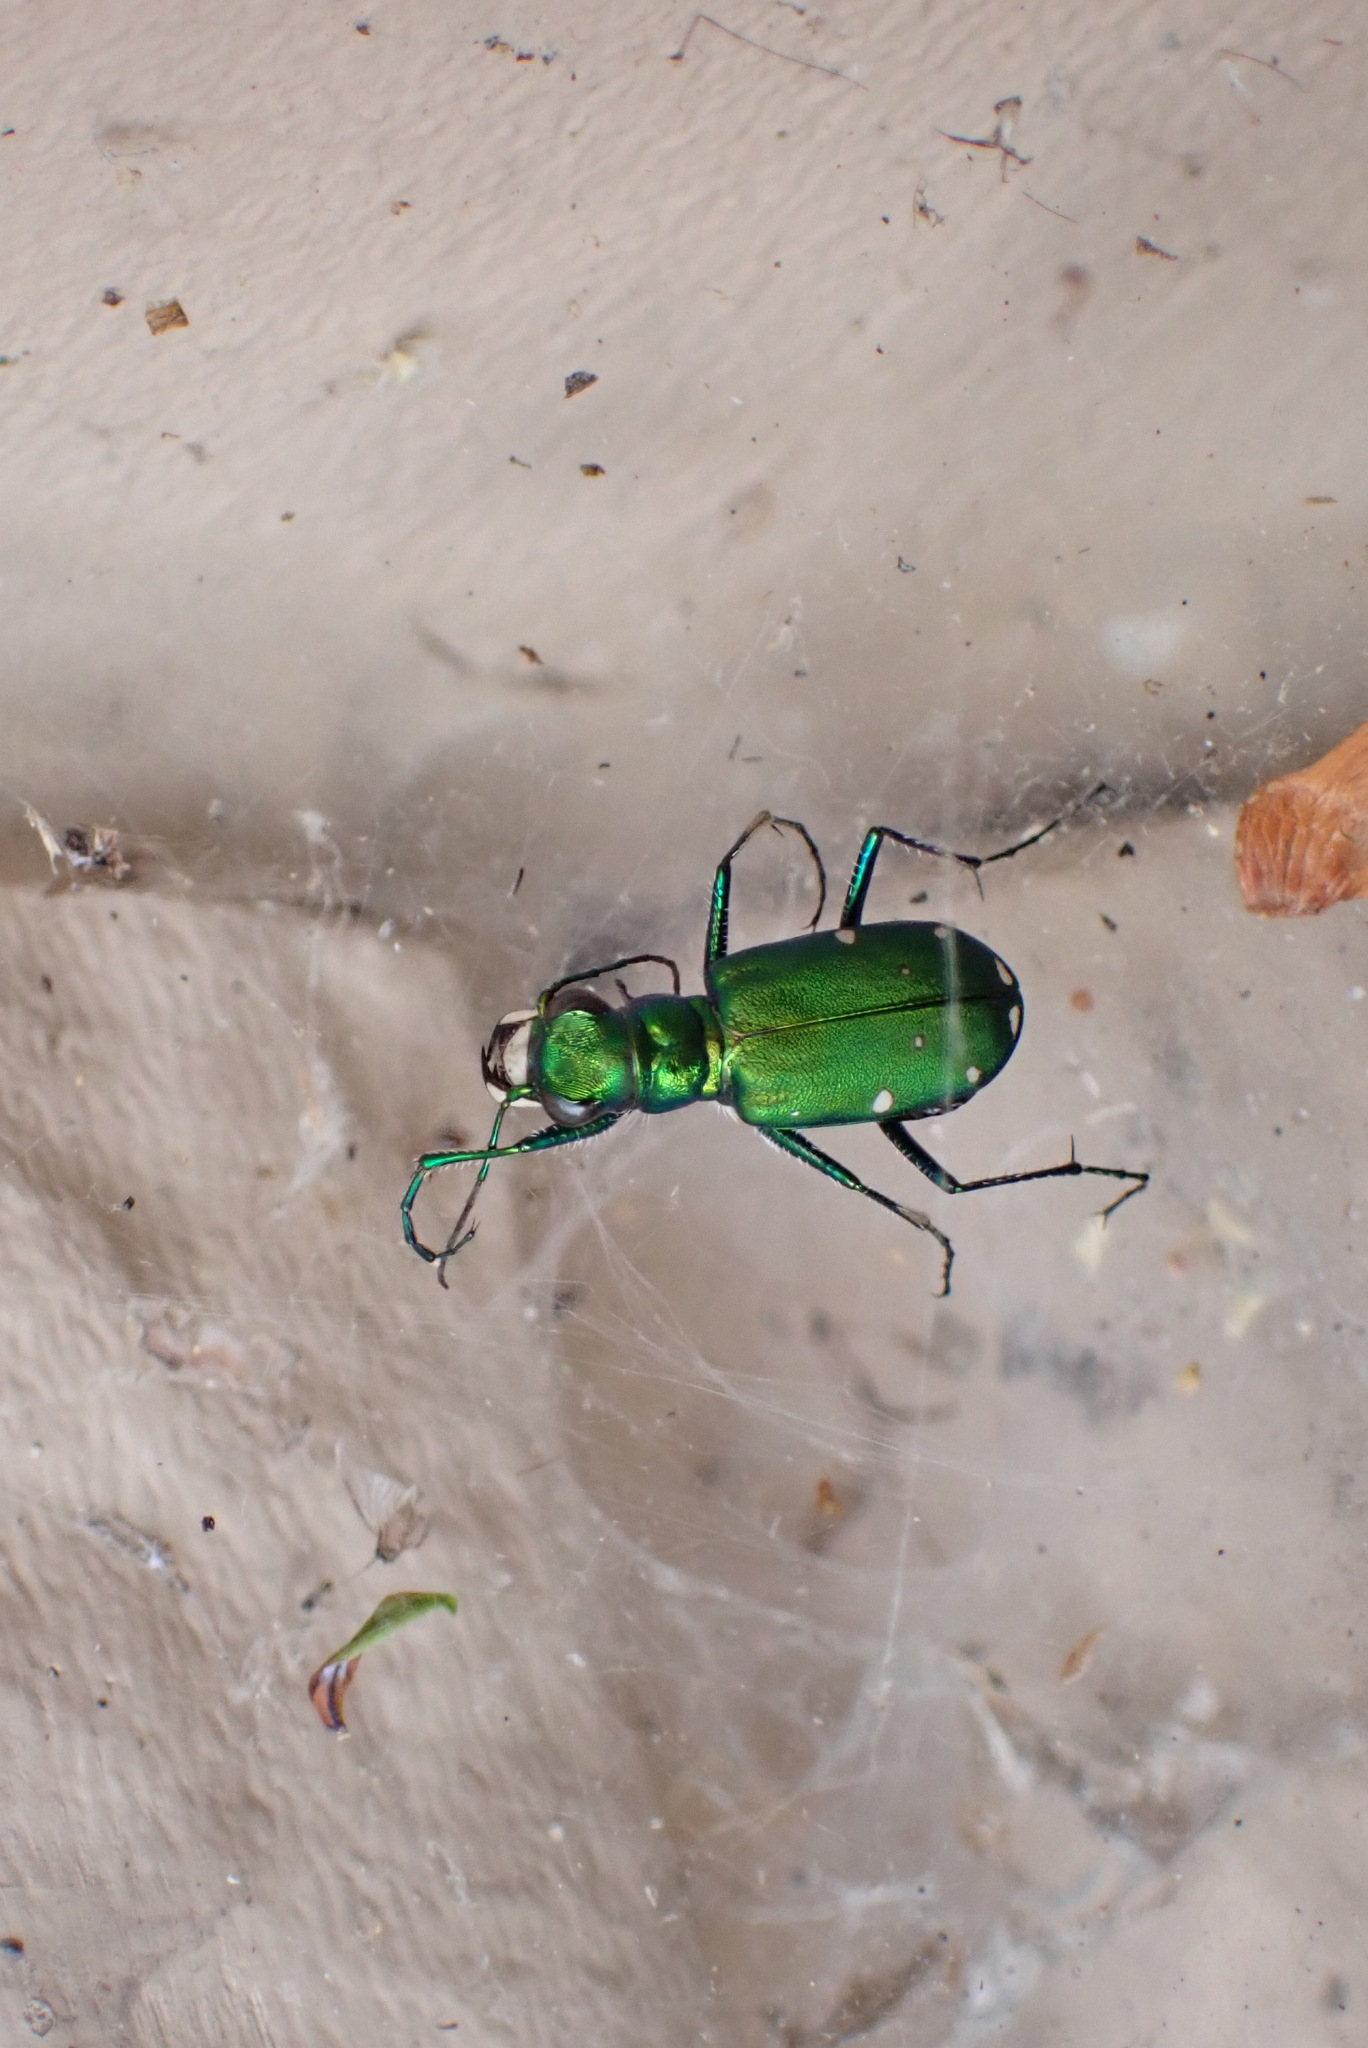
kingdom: Animalia
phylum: Arthropoda
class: Insecta
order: Coleoptera
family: Carabidae
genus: Cicindela
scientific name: Cicindela sexguttata
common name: Six-spotted tiger beetle
